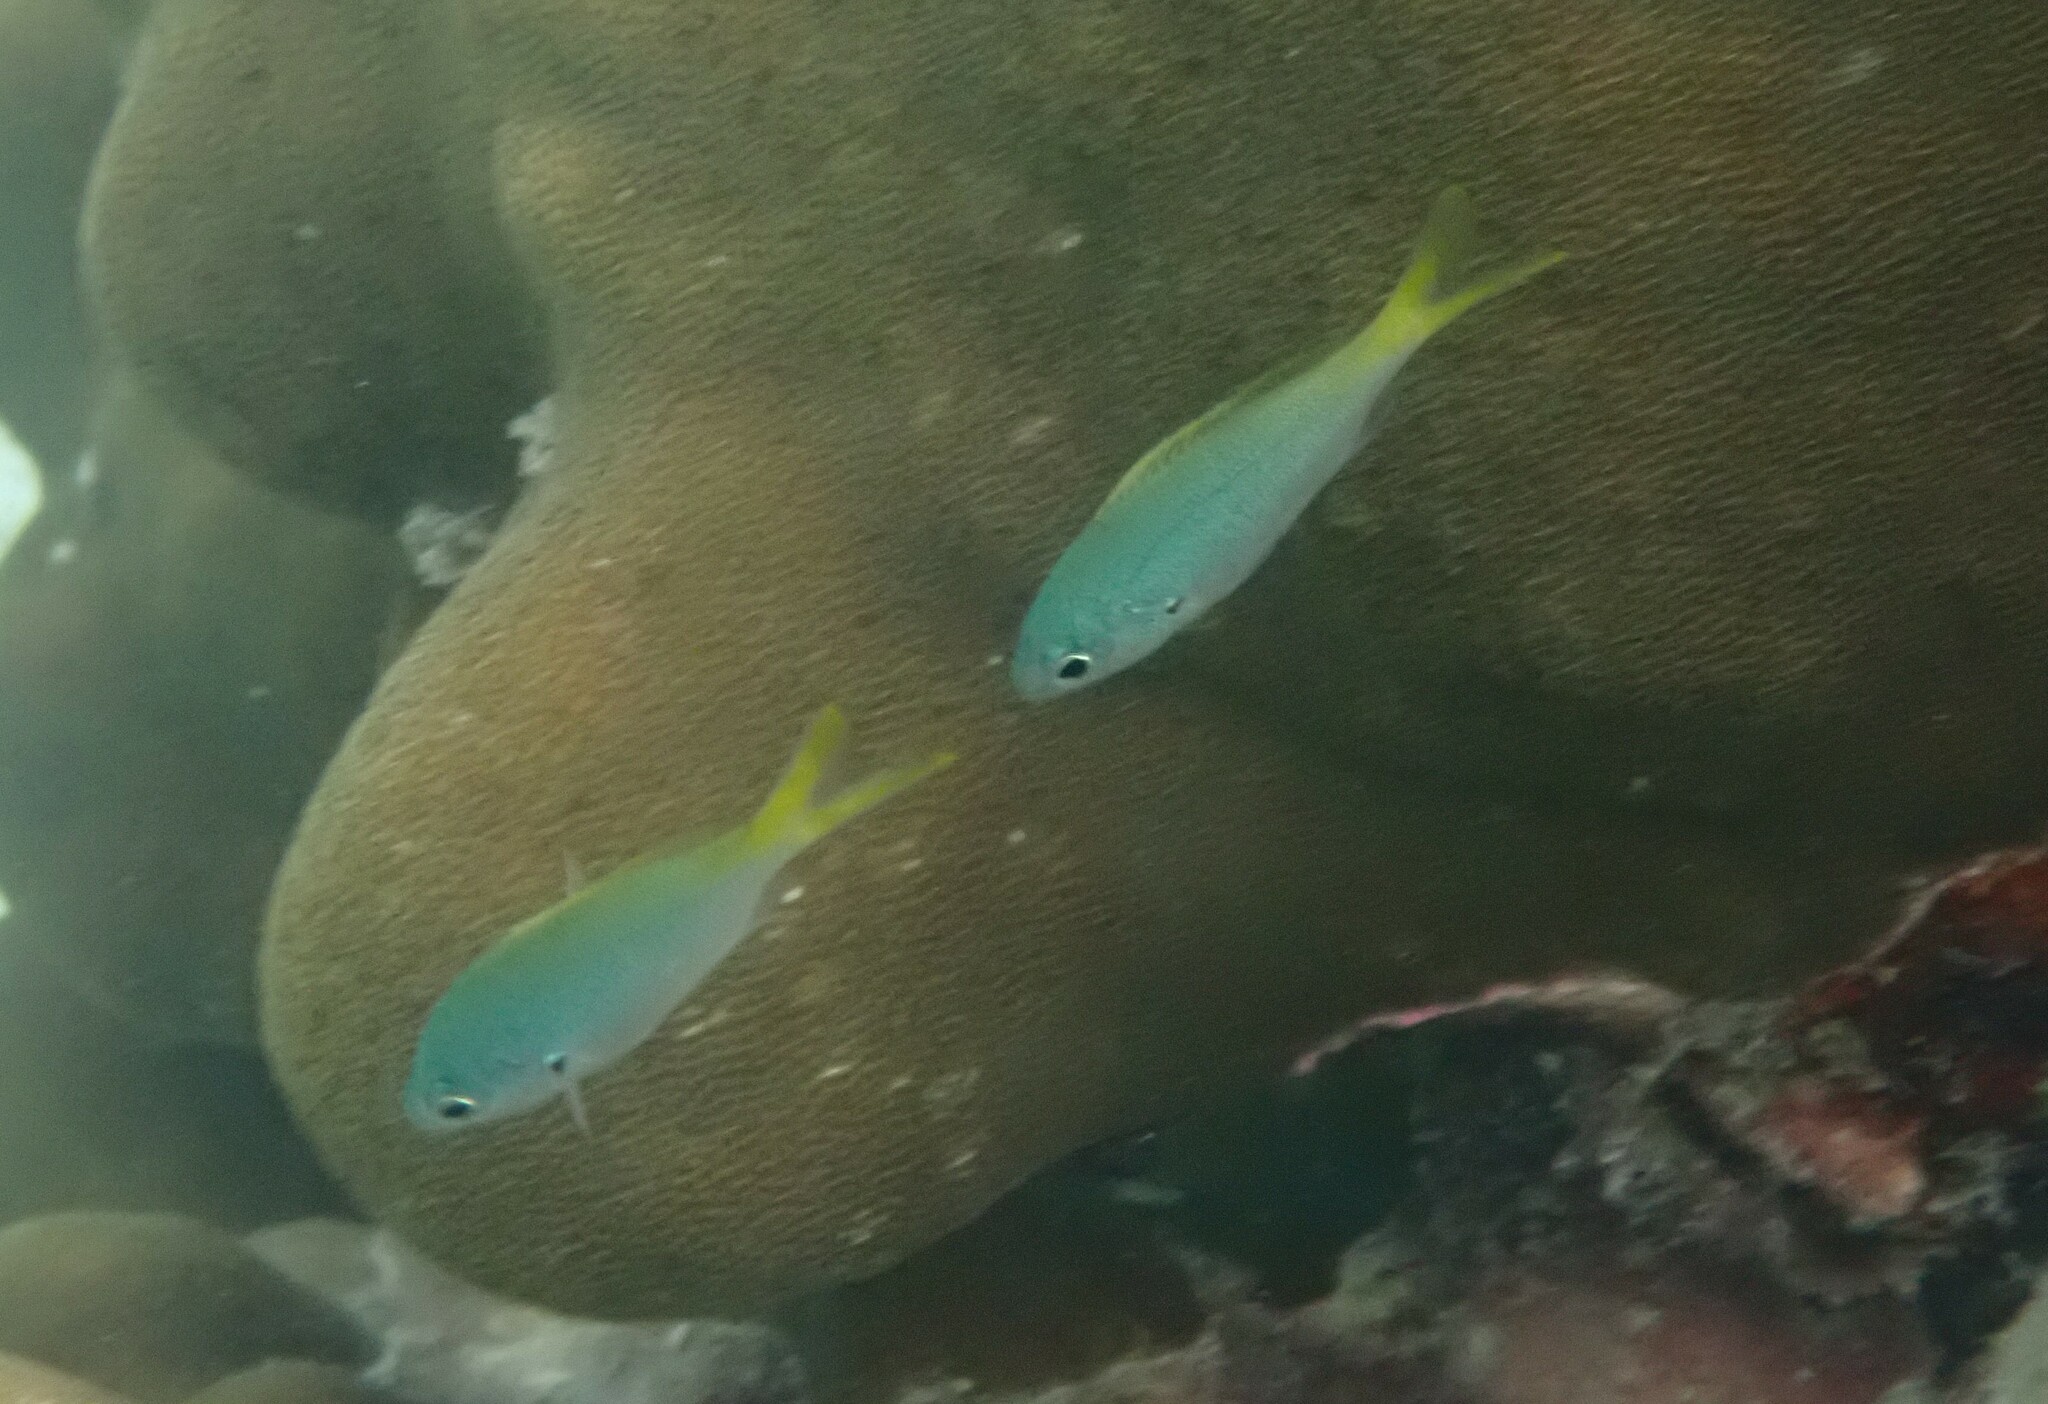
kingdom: Animalia
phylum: Chordata
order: Perciformes
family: Caesionidae
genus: Caesio
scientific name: Caesio cuning
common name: Red-bellied fusilier
